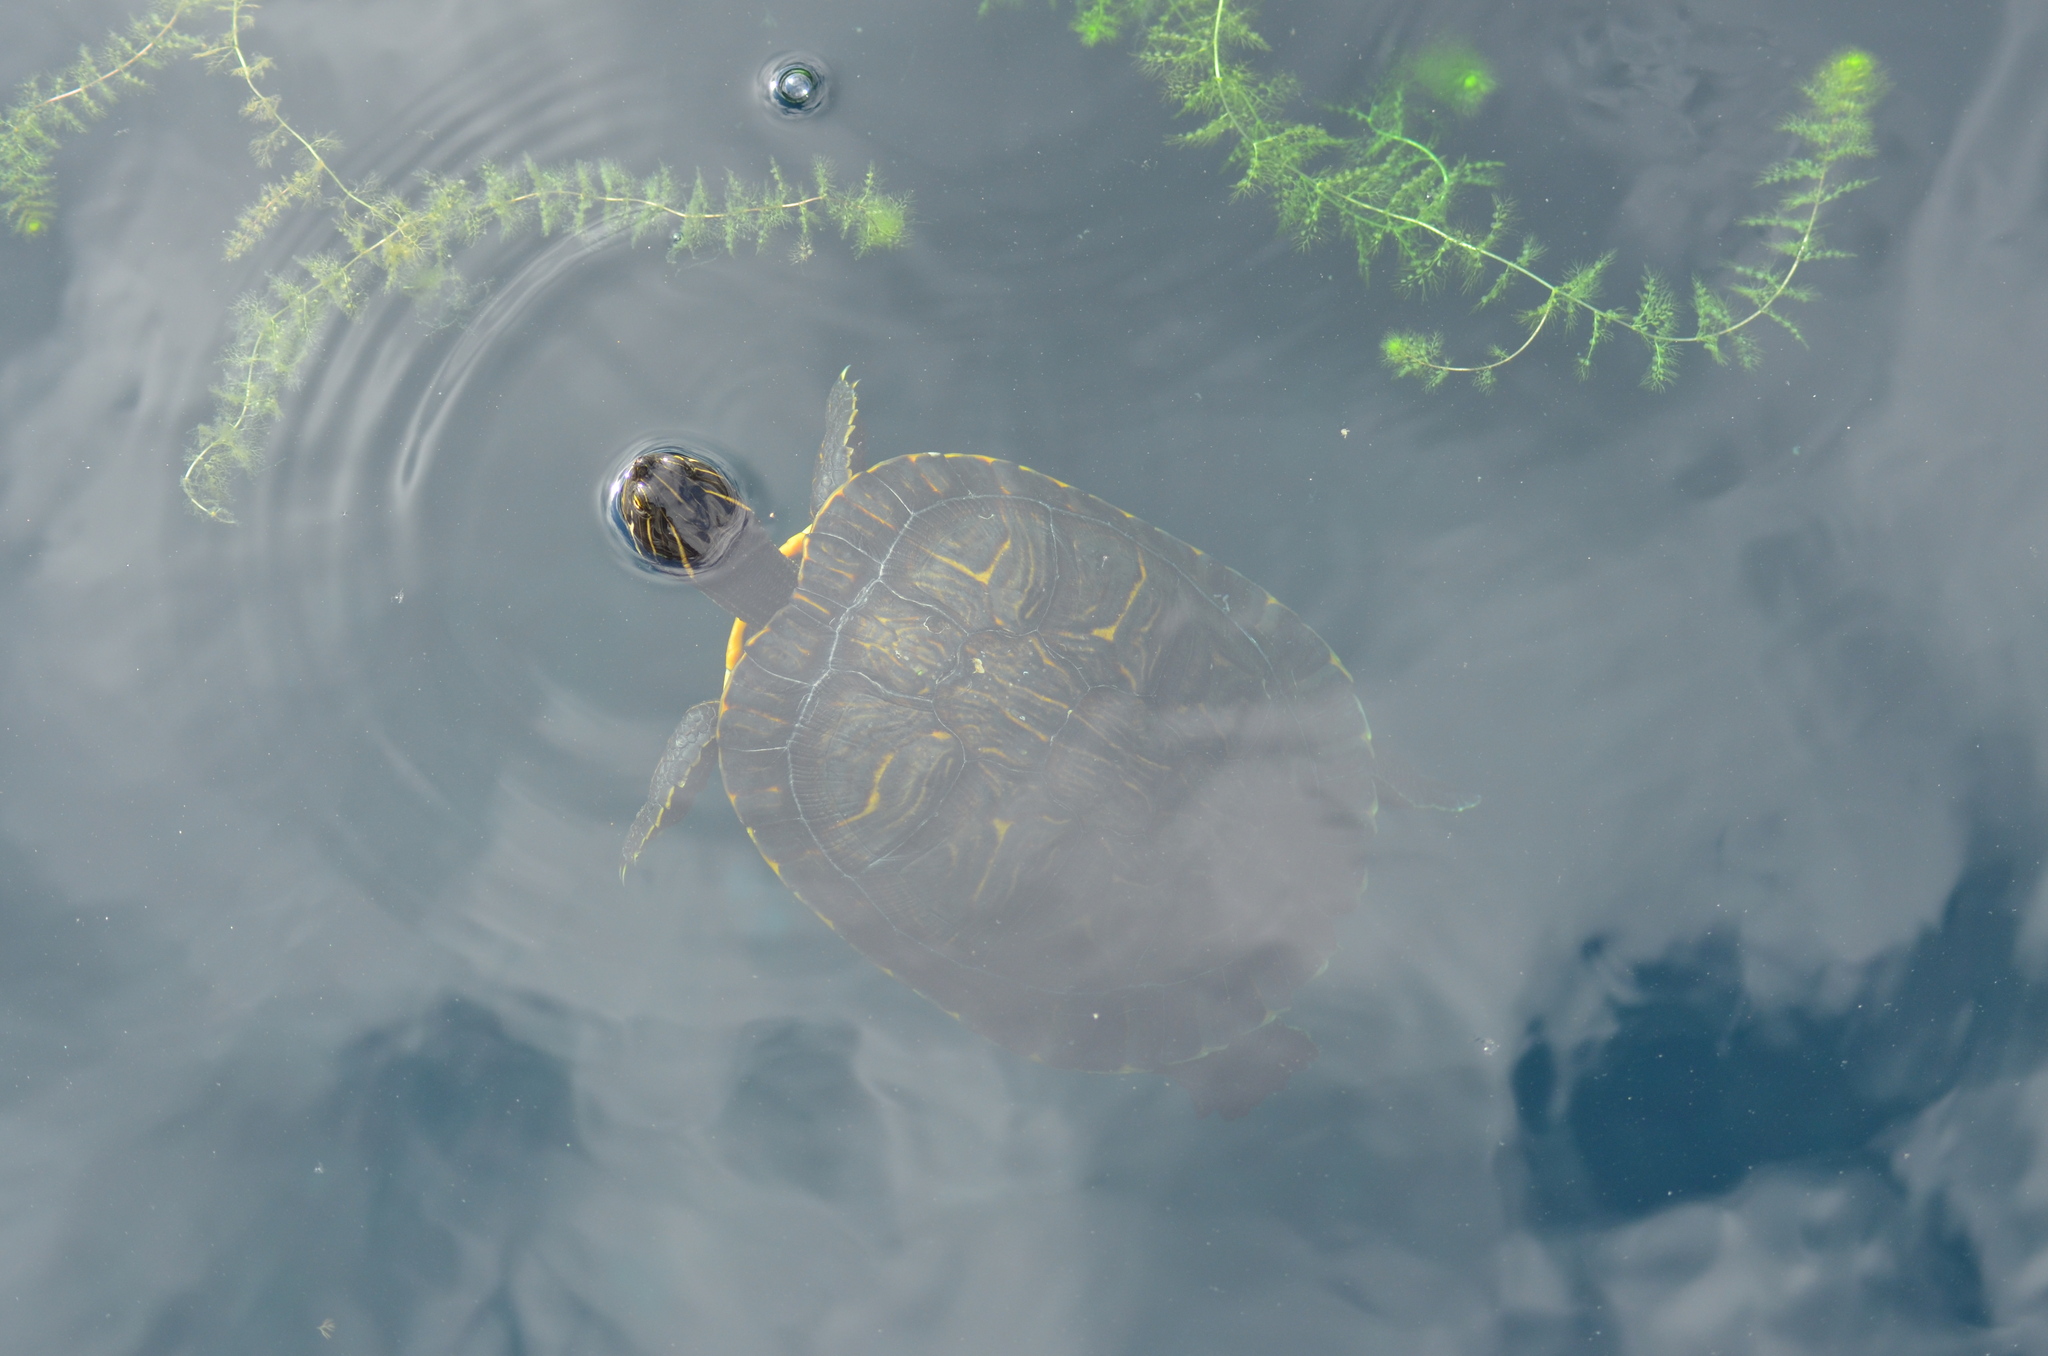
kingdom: Animalia
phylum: Chordata
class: Testudines
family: Emydidae
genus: Pseudemys
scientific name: Pseudemys concinna
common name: Eastern river cooter
